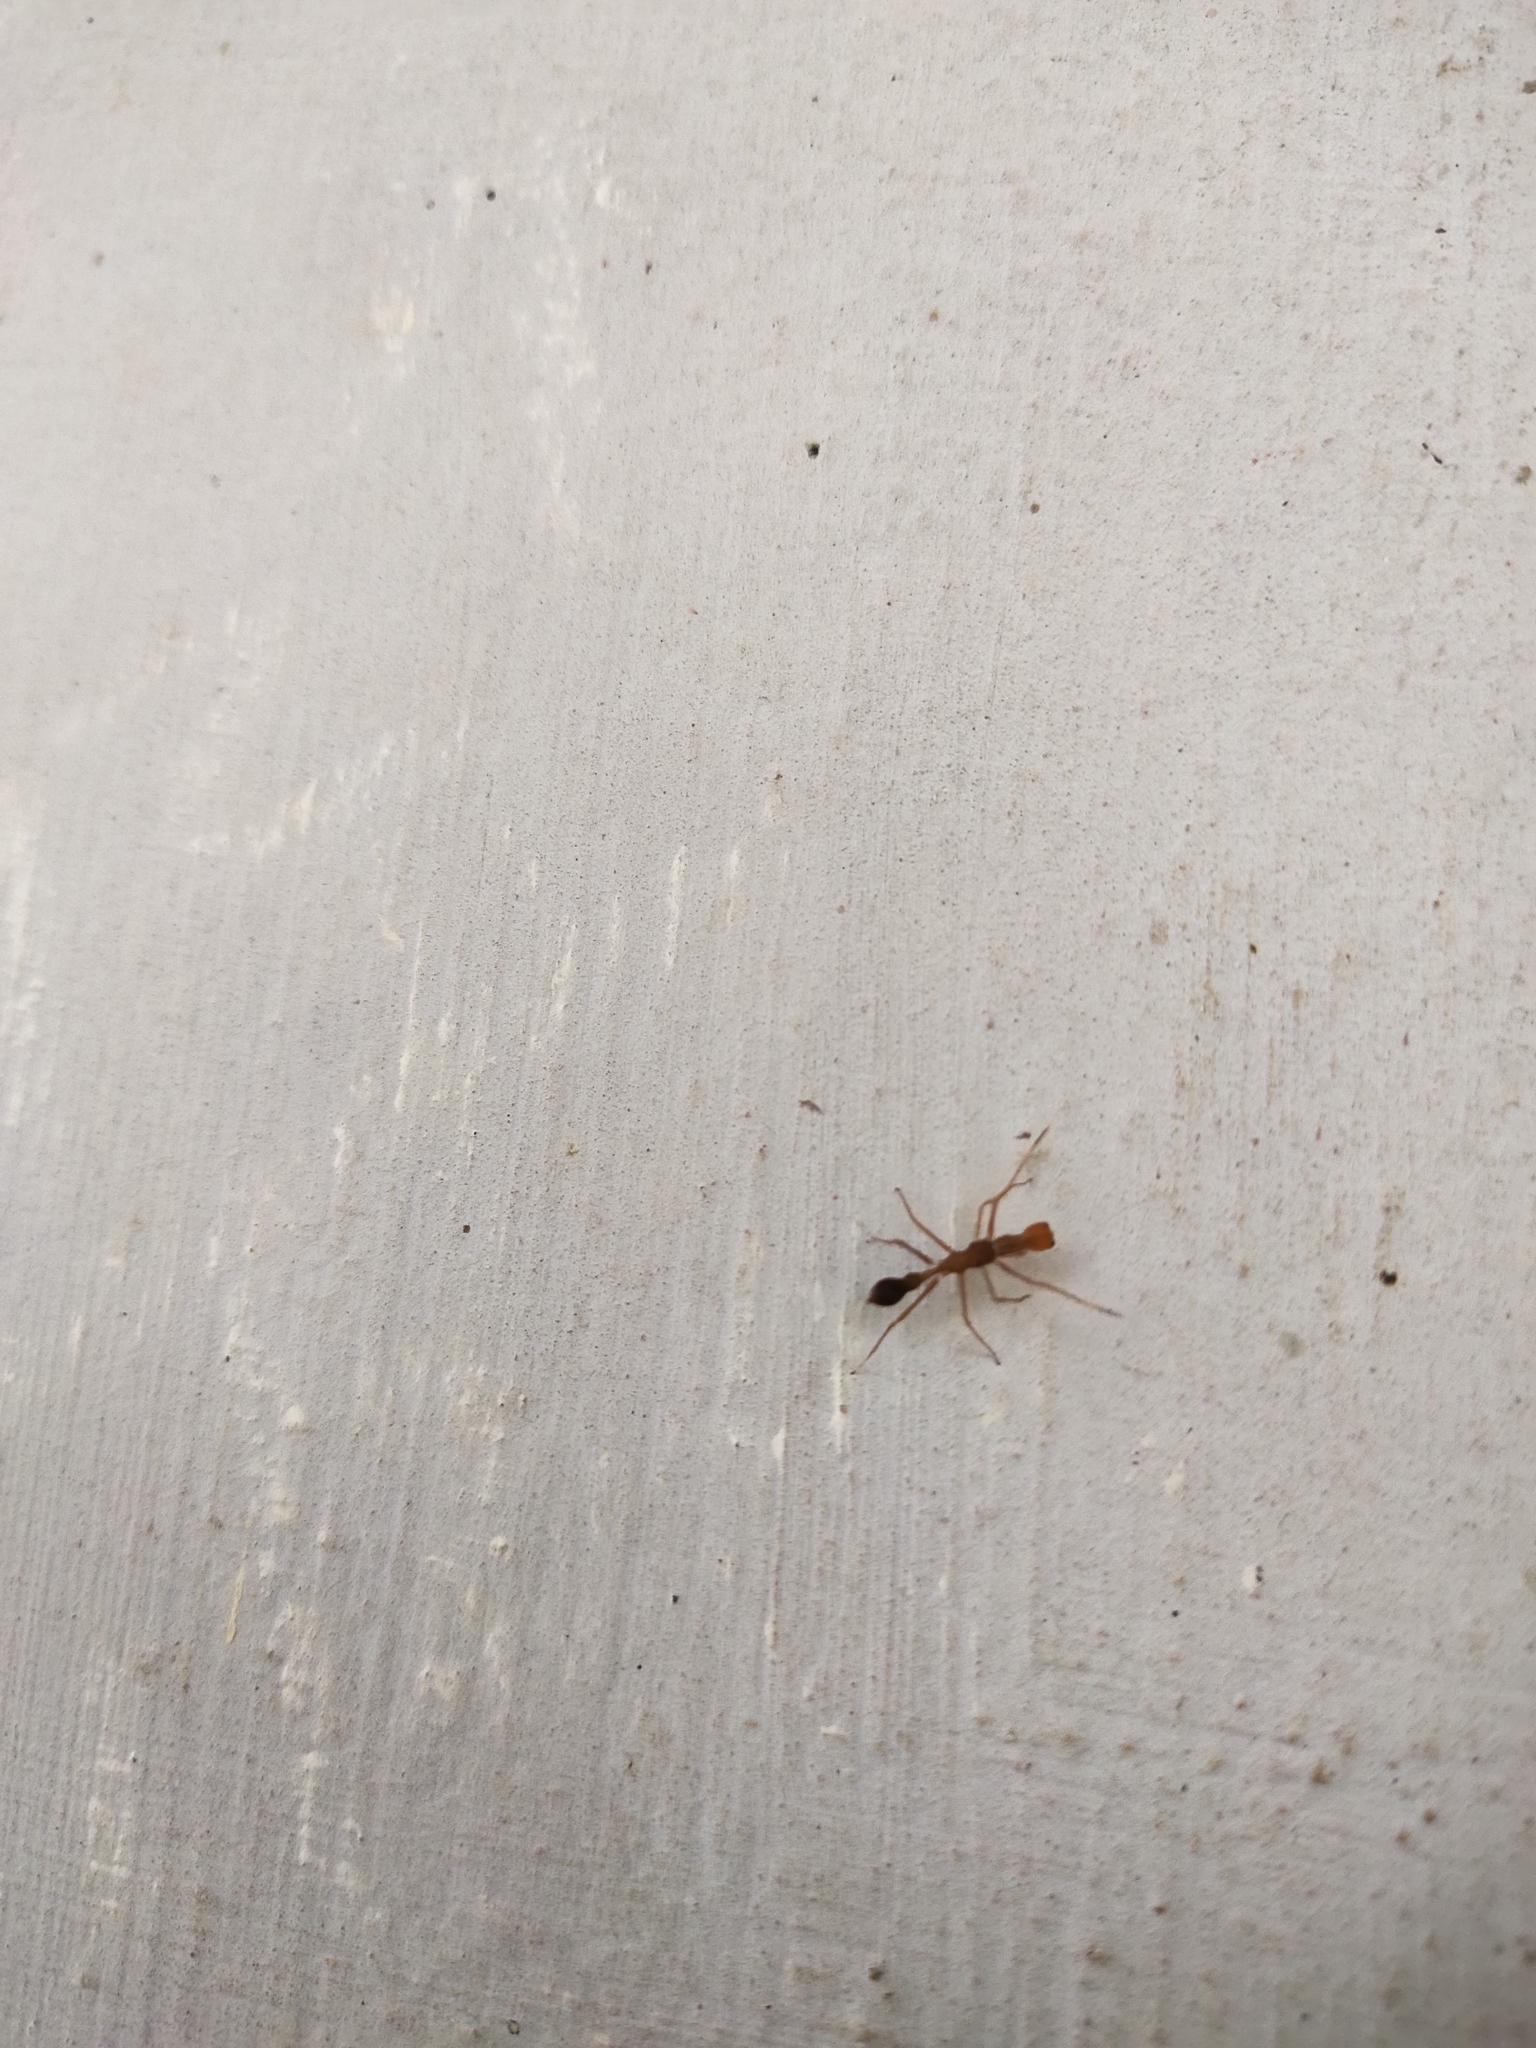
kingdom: Animalia
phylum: Arthropoda
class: Arachnida
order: Araneae
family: Salticidae
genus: Myrmaplata
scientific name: Myrmaplata plataleoides
